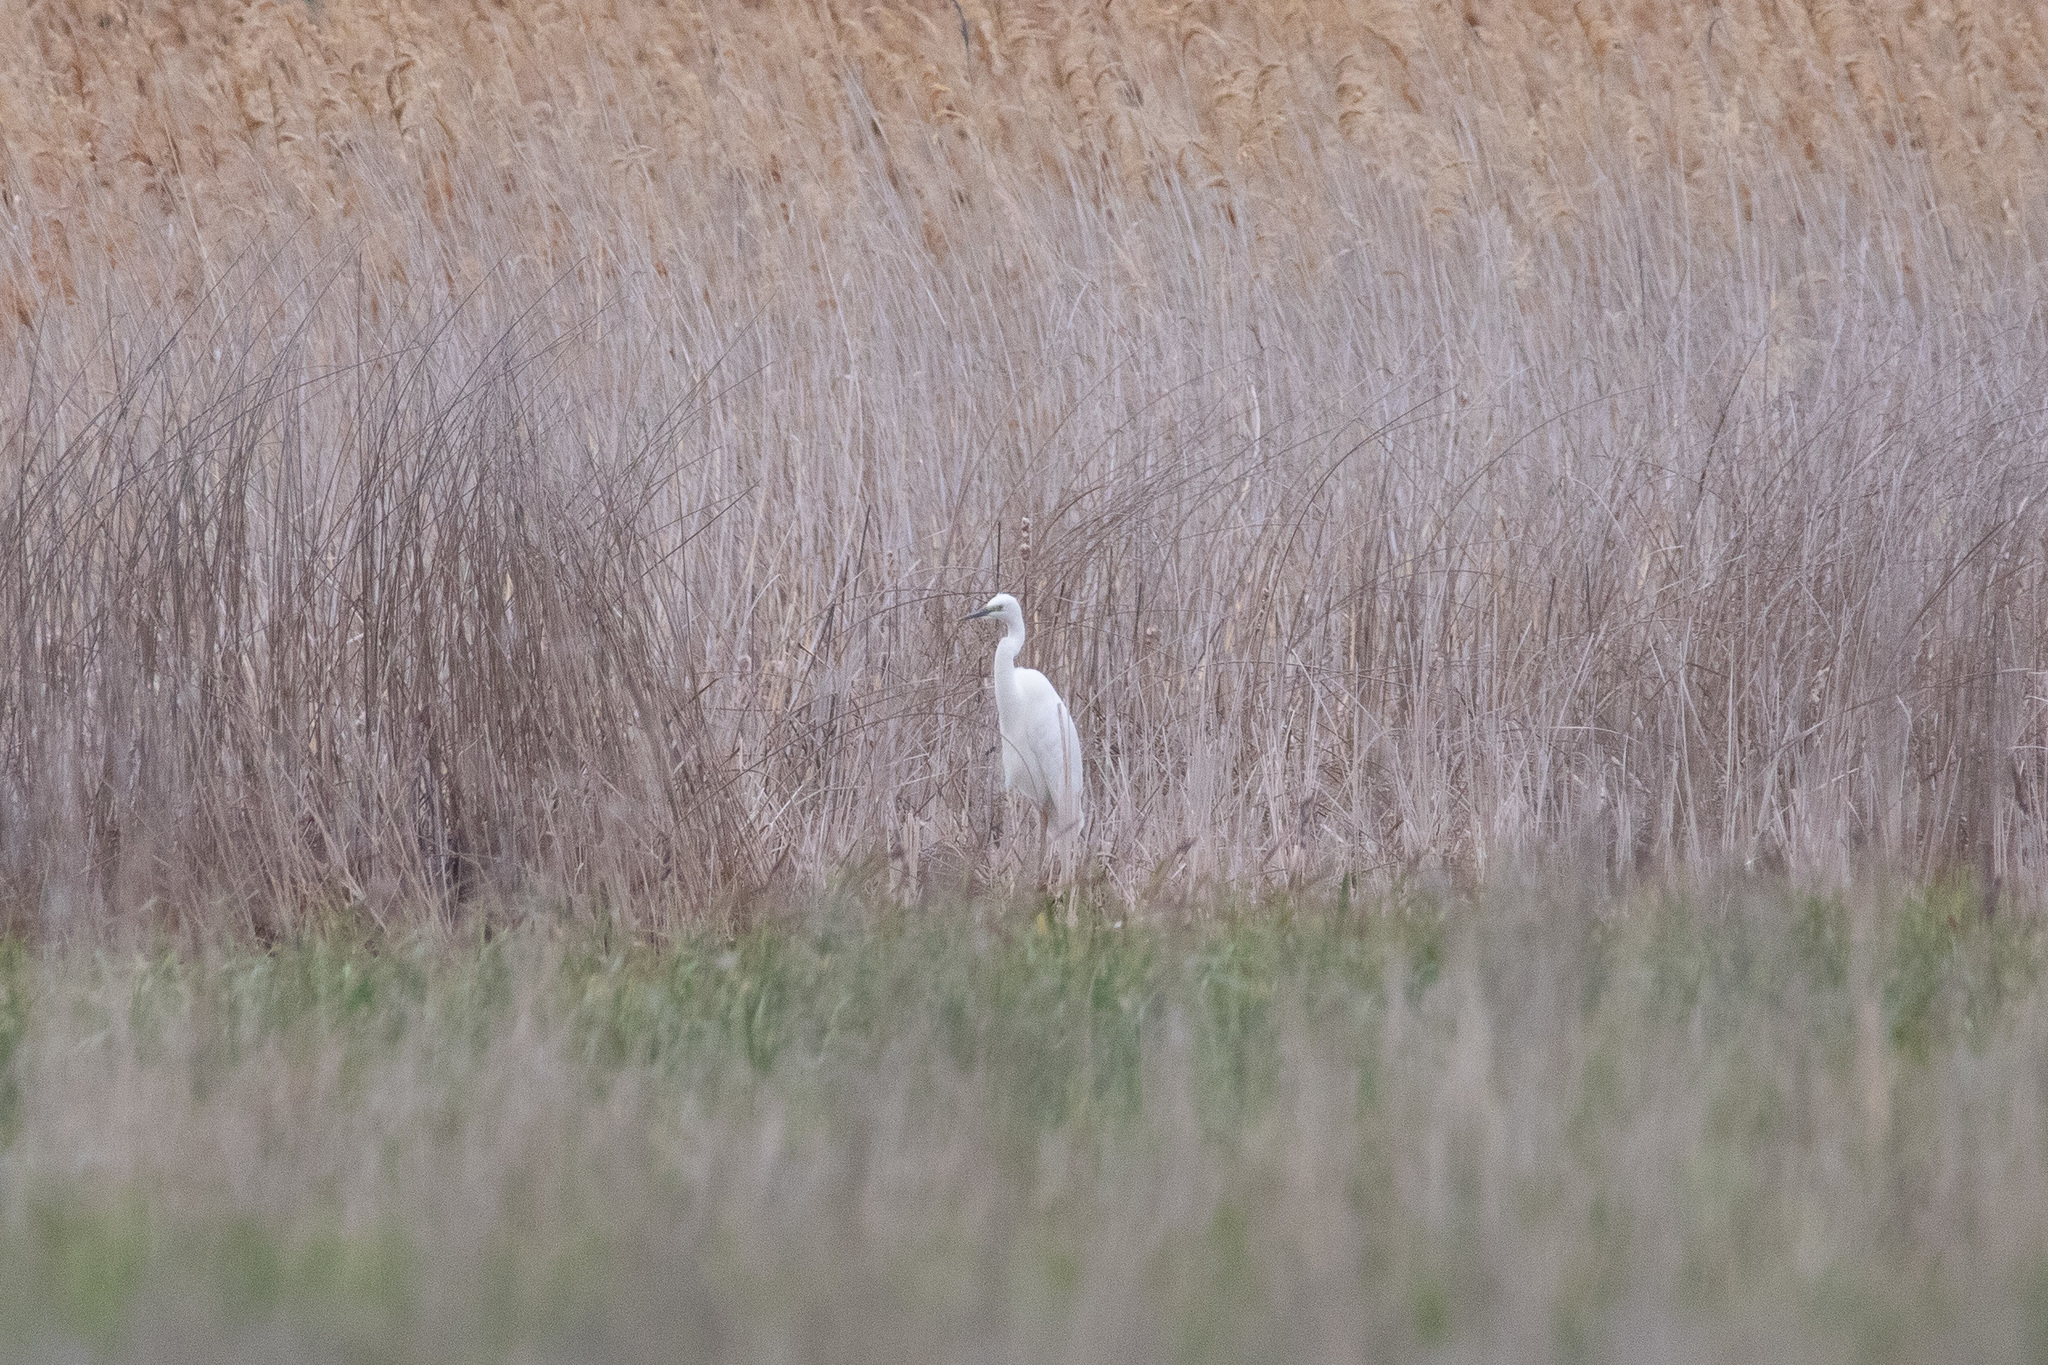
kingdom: Animalia
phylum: Chordata
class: Aves
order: Pelecaniformes
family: Ardeidae
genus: Ardea
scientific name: Ardea alba
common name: Great egret
